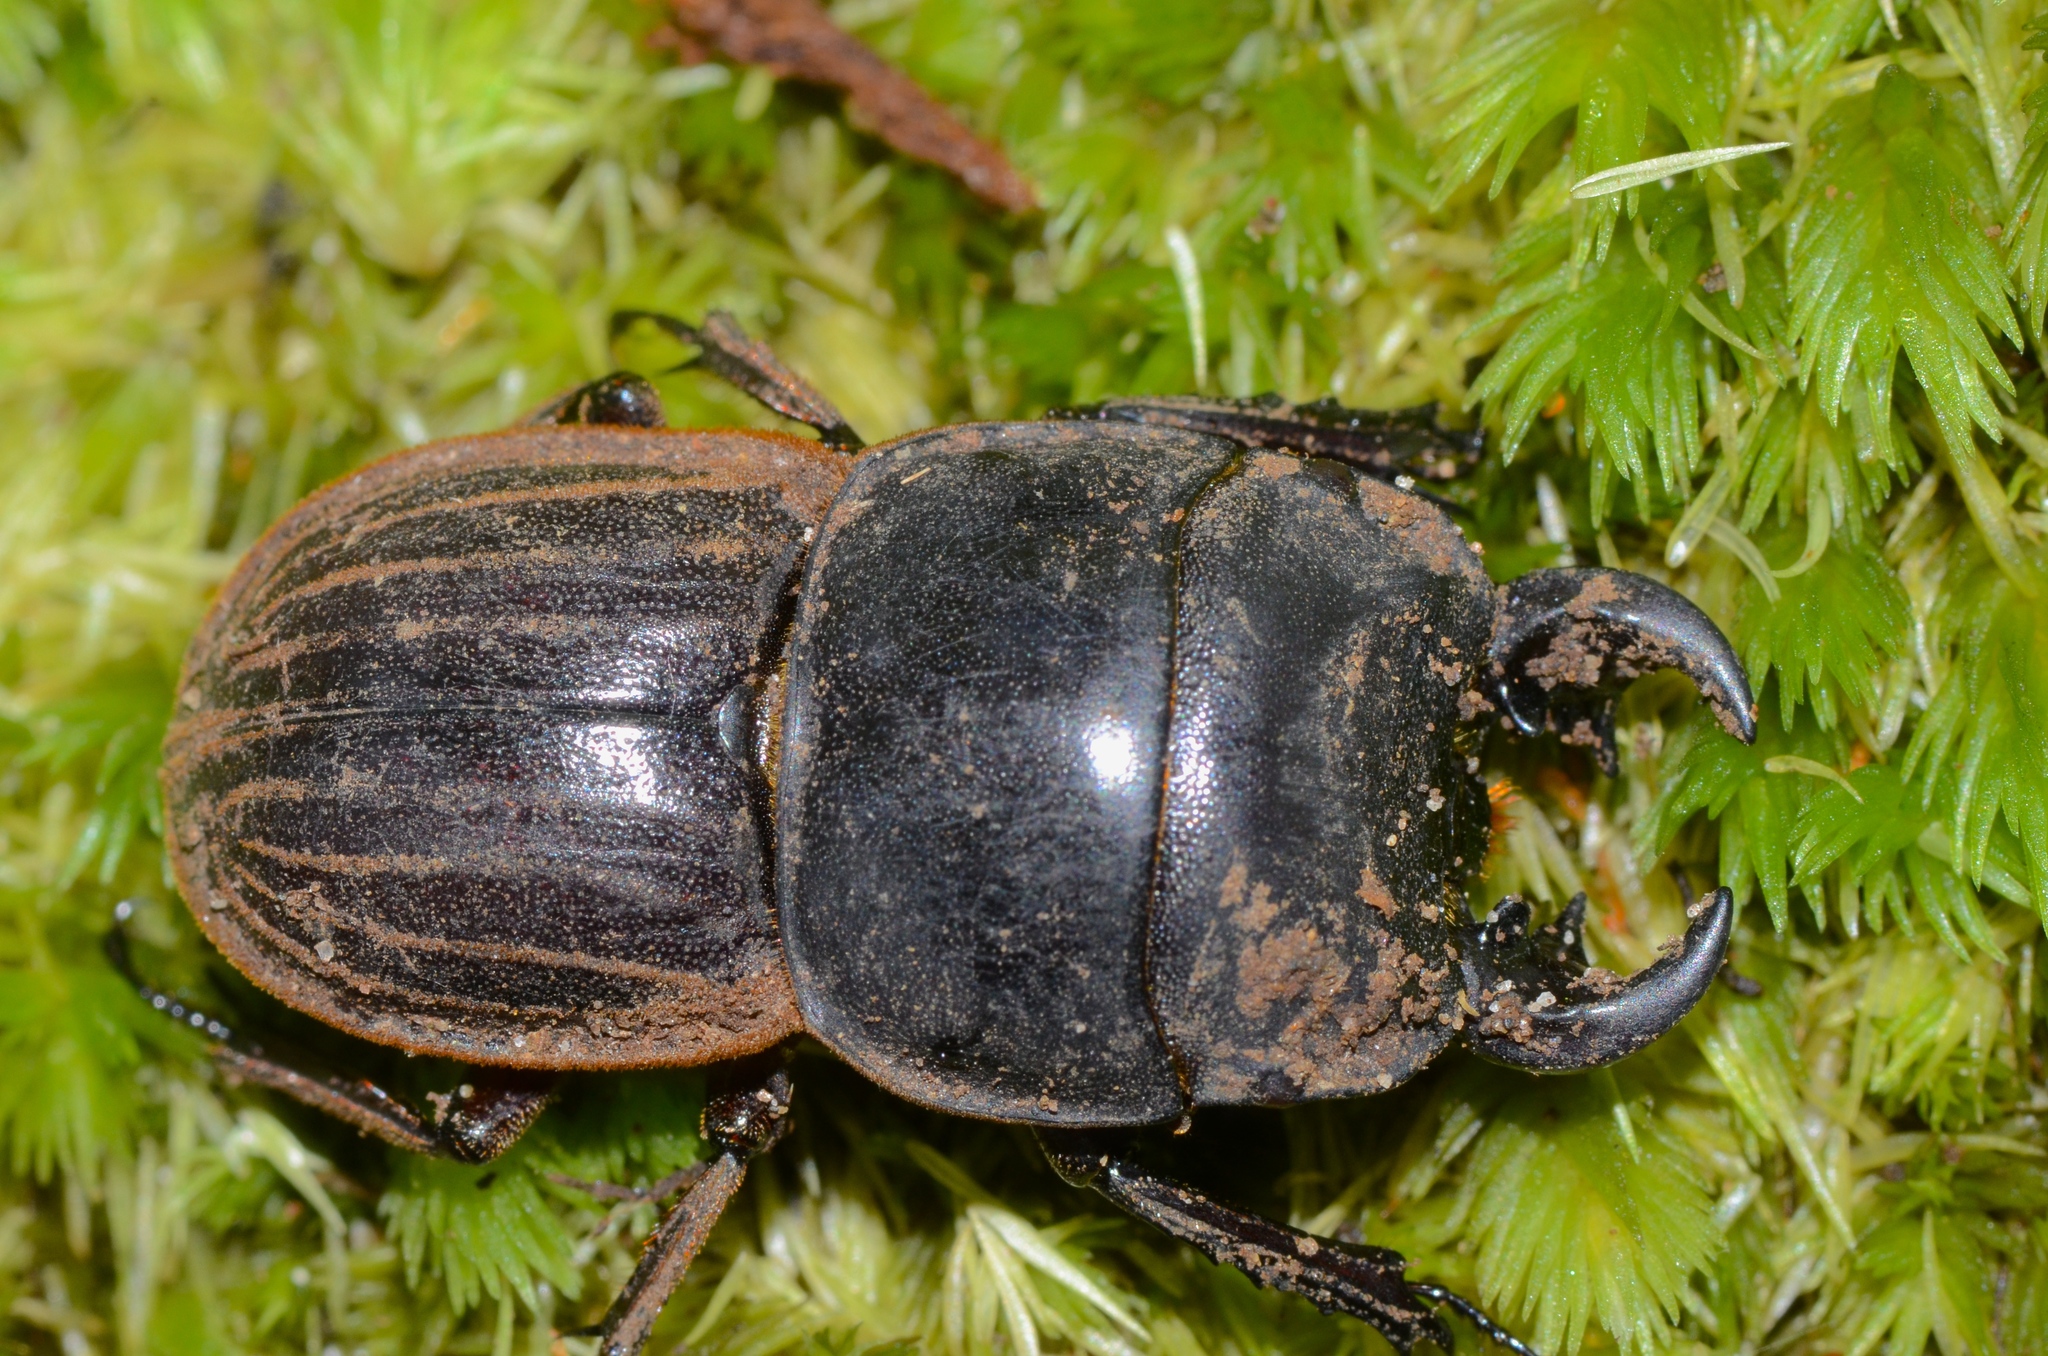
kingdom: Animalia
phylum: Arthropoda
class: Insecta
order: Coleoptera
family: Lucanidae
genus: Geodorcus
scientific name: Geodorcus helmsi
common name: Helm's stag beetle
